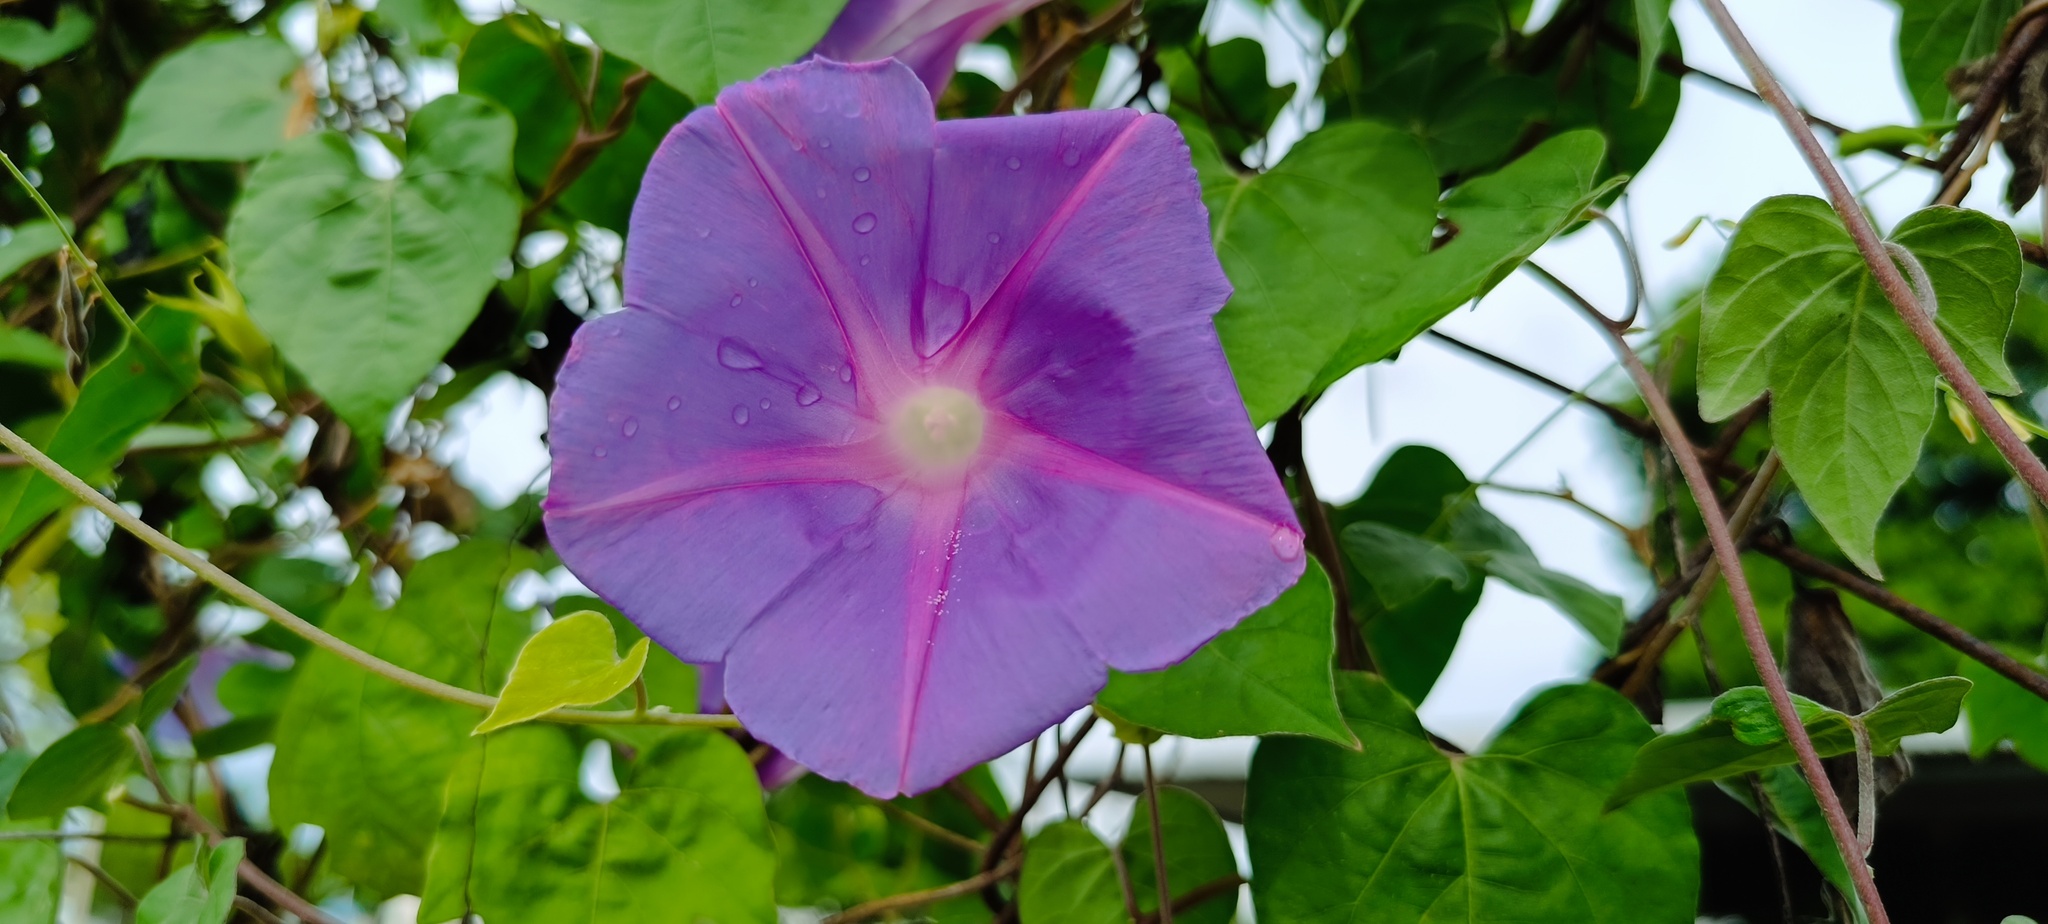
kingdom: Plantae
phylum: Tracheophyta
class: Magnoliopsida
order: Solanales
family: Convolvulaceae
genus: Ipomoea
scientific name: Ipomoea indica
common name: Blue dawnflower
